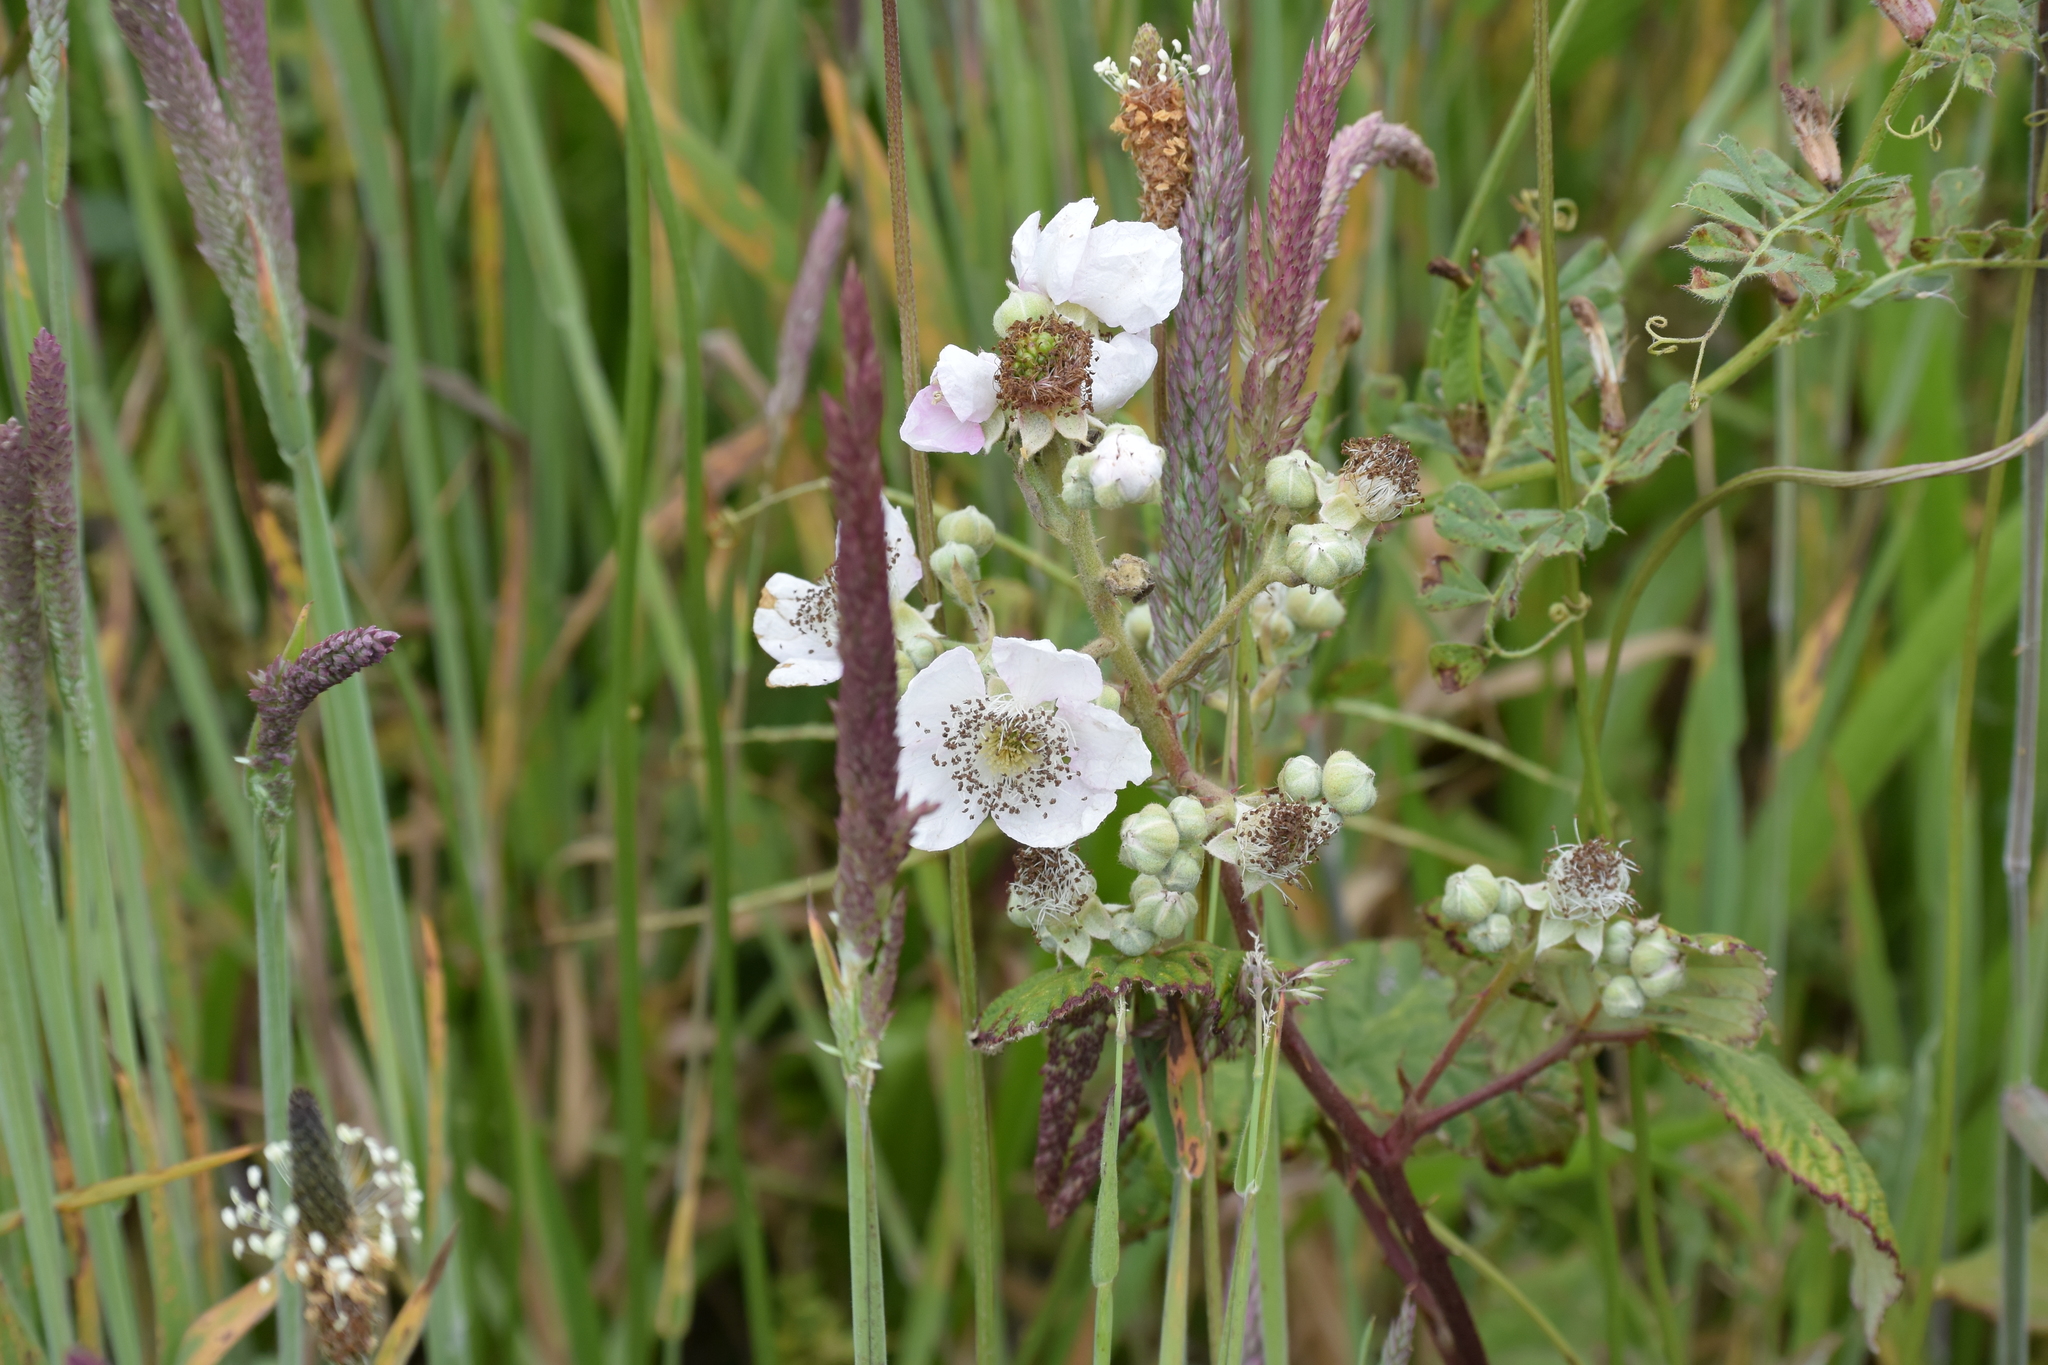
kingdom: Plantae
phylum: Tracheophyta
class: Magnoliopsida
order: Rosales
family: Rosaceae
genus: Rubus
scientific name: Rubus armeniacus
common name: Himalayan blackberry
